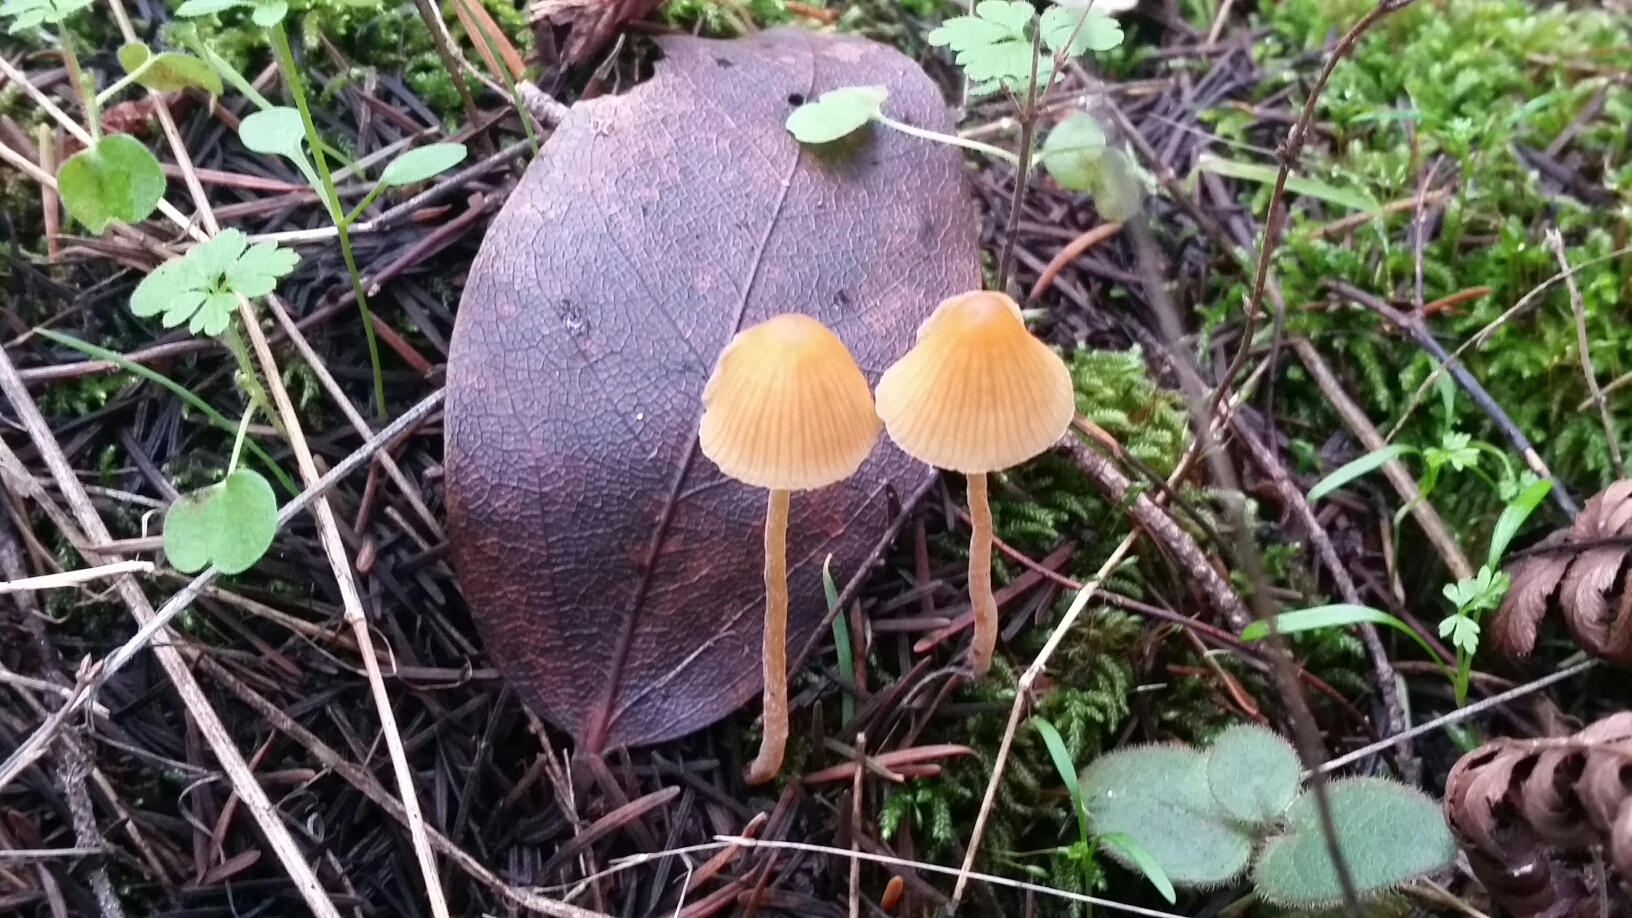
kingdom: Fungi
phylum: Basidiomycota
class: Agaricomycetes
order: Agaricales
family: Hymenogastraceae
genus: Galerina
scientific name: Galerina semilanceata
